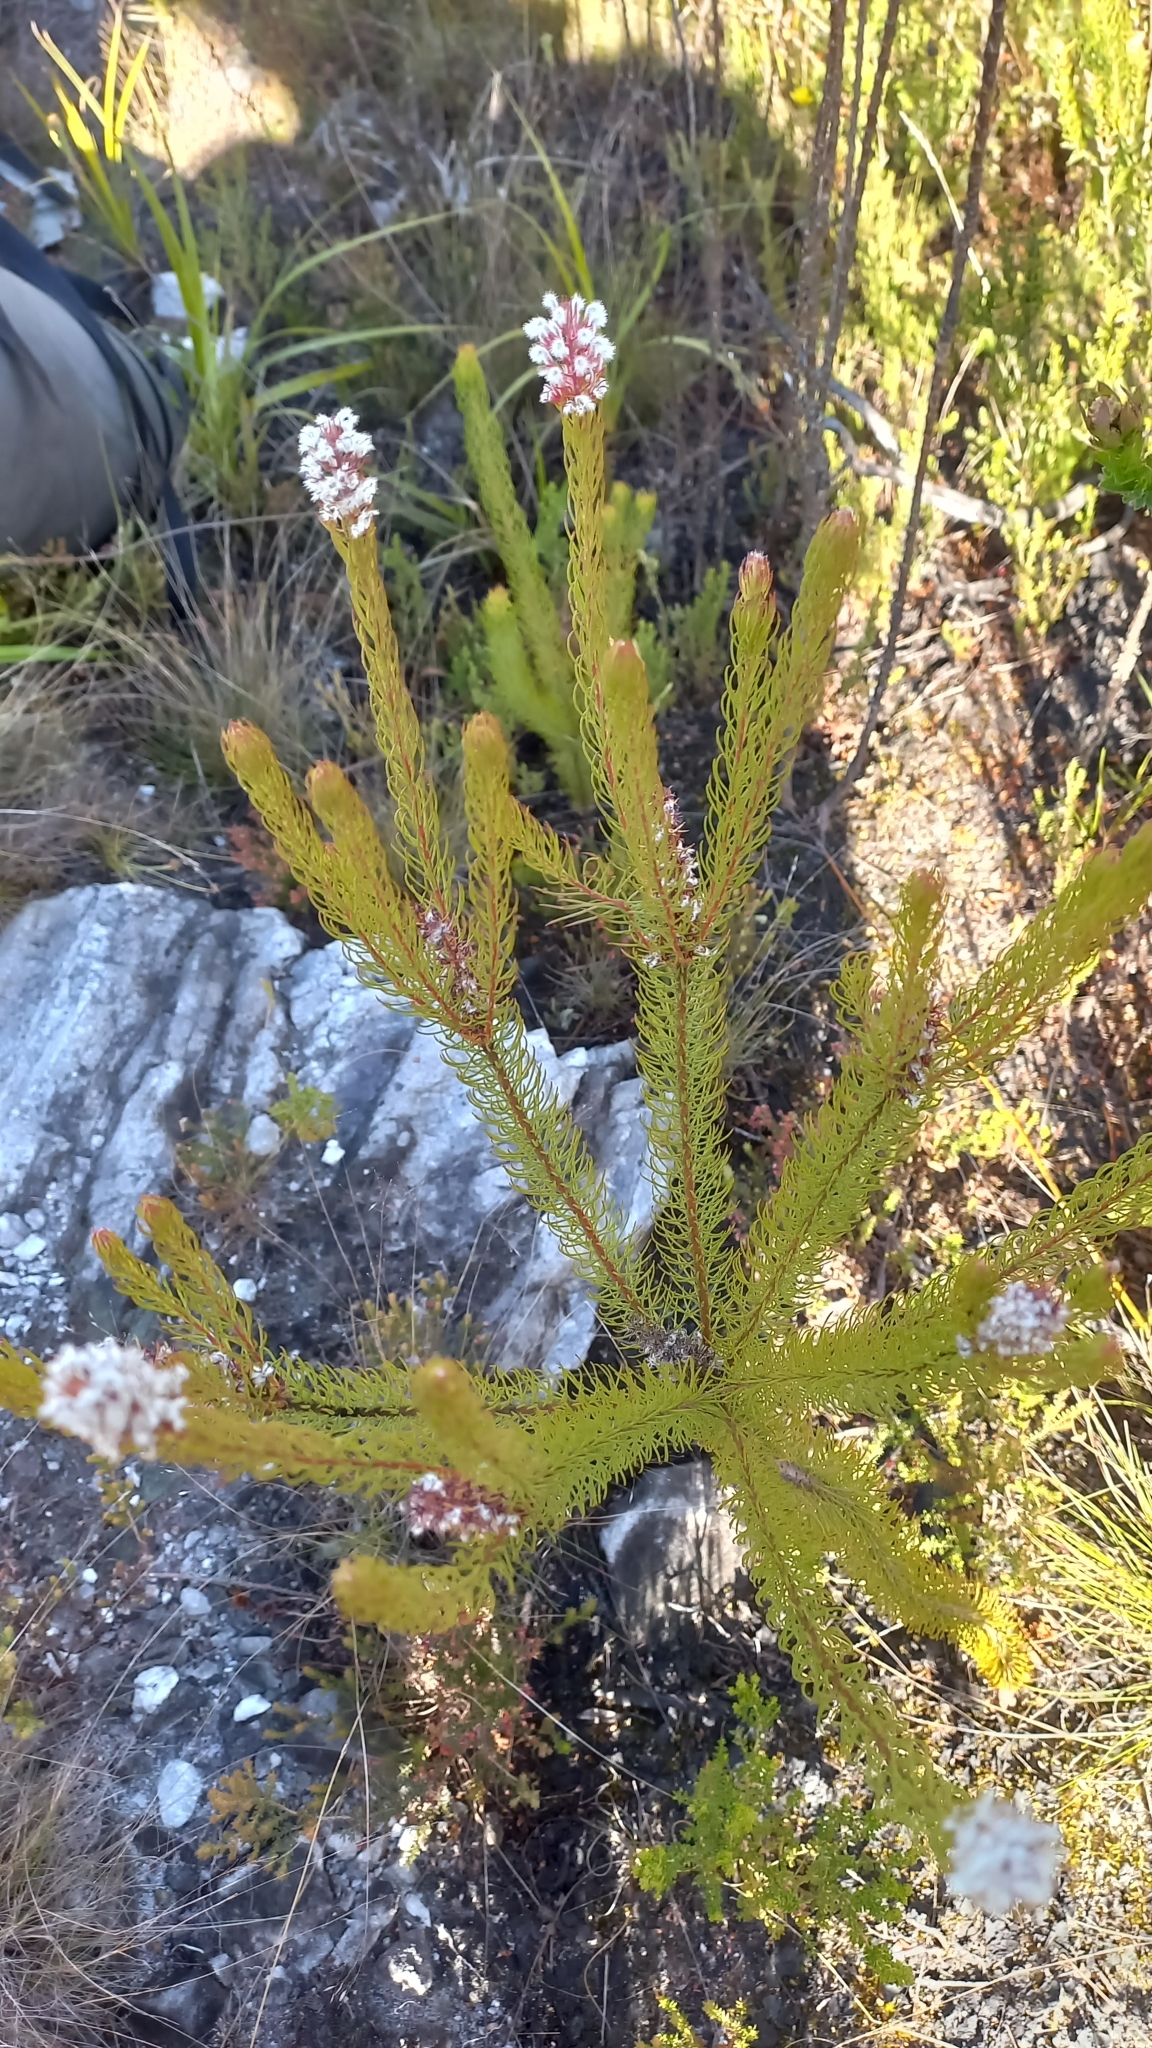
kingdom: Plantae
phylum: Tracheophyta
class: Magnoliopsida
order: Proteales
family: Proteaceae
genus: Spatalla
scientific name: Spatalla parilis
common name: Spike spoon
